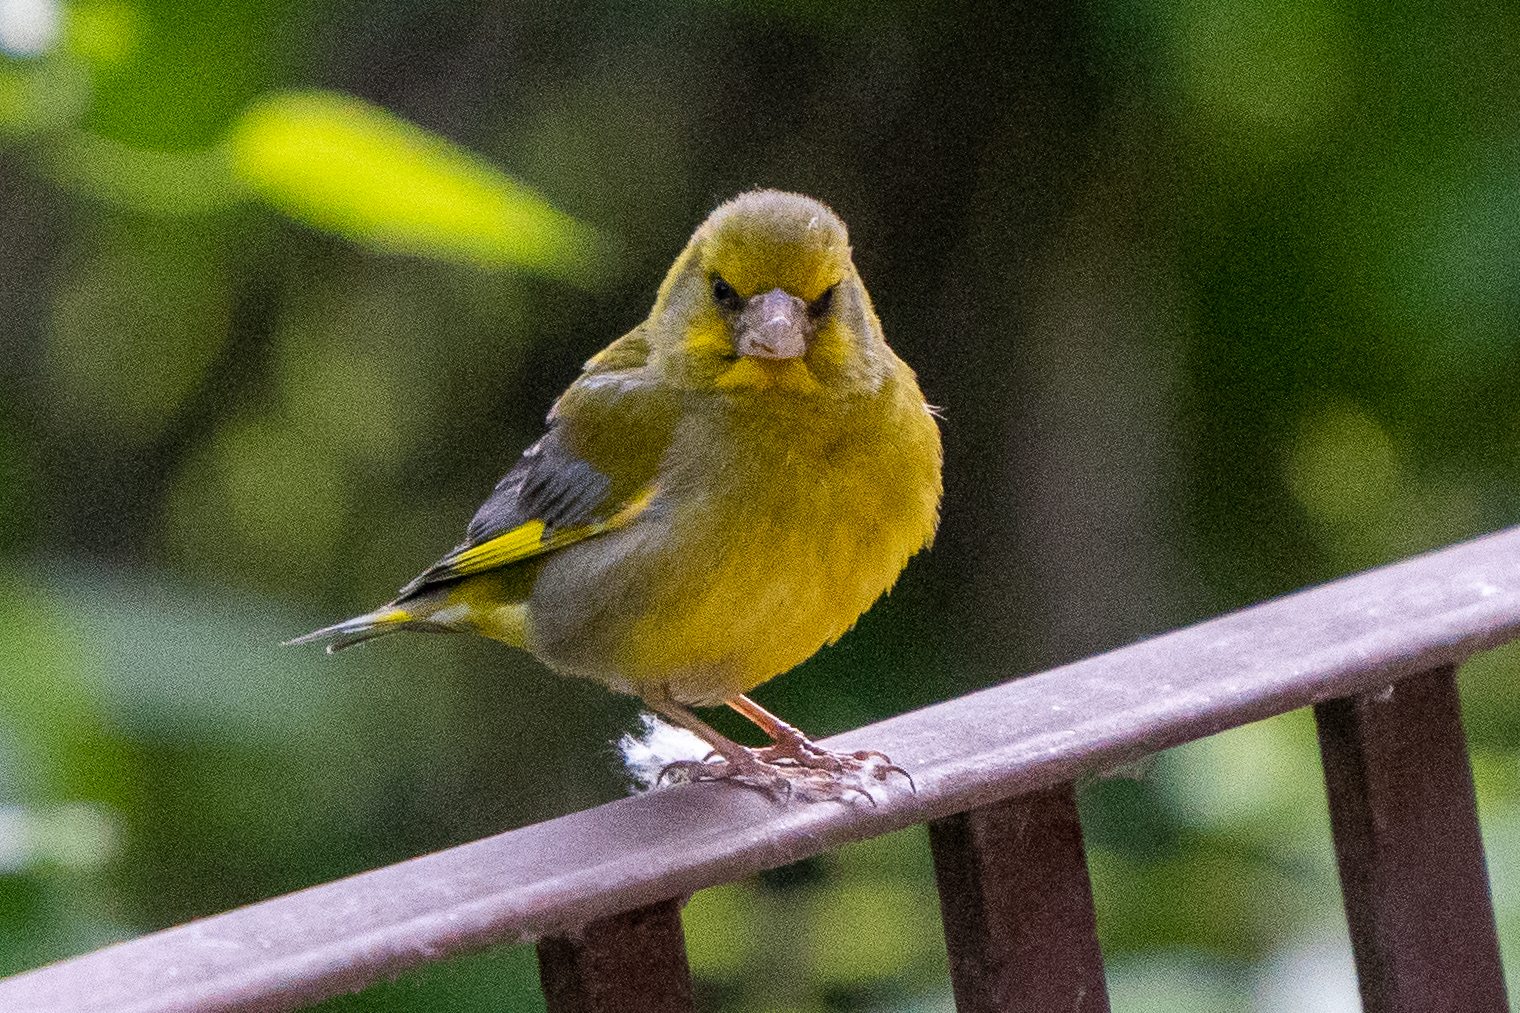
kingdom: Plantae
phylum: Tracheophyta
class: Liliopsida
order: Poales
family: Poaceae
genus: Chloris
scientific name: Chloris chloris
